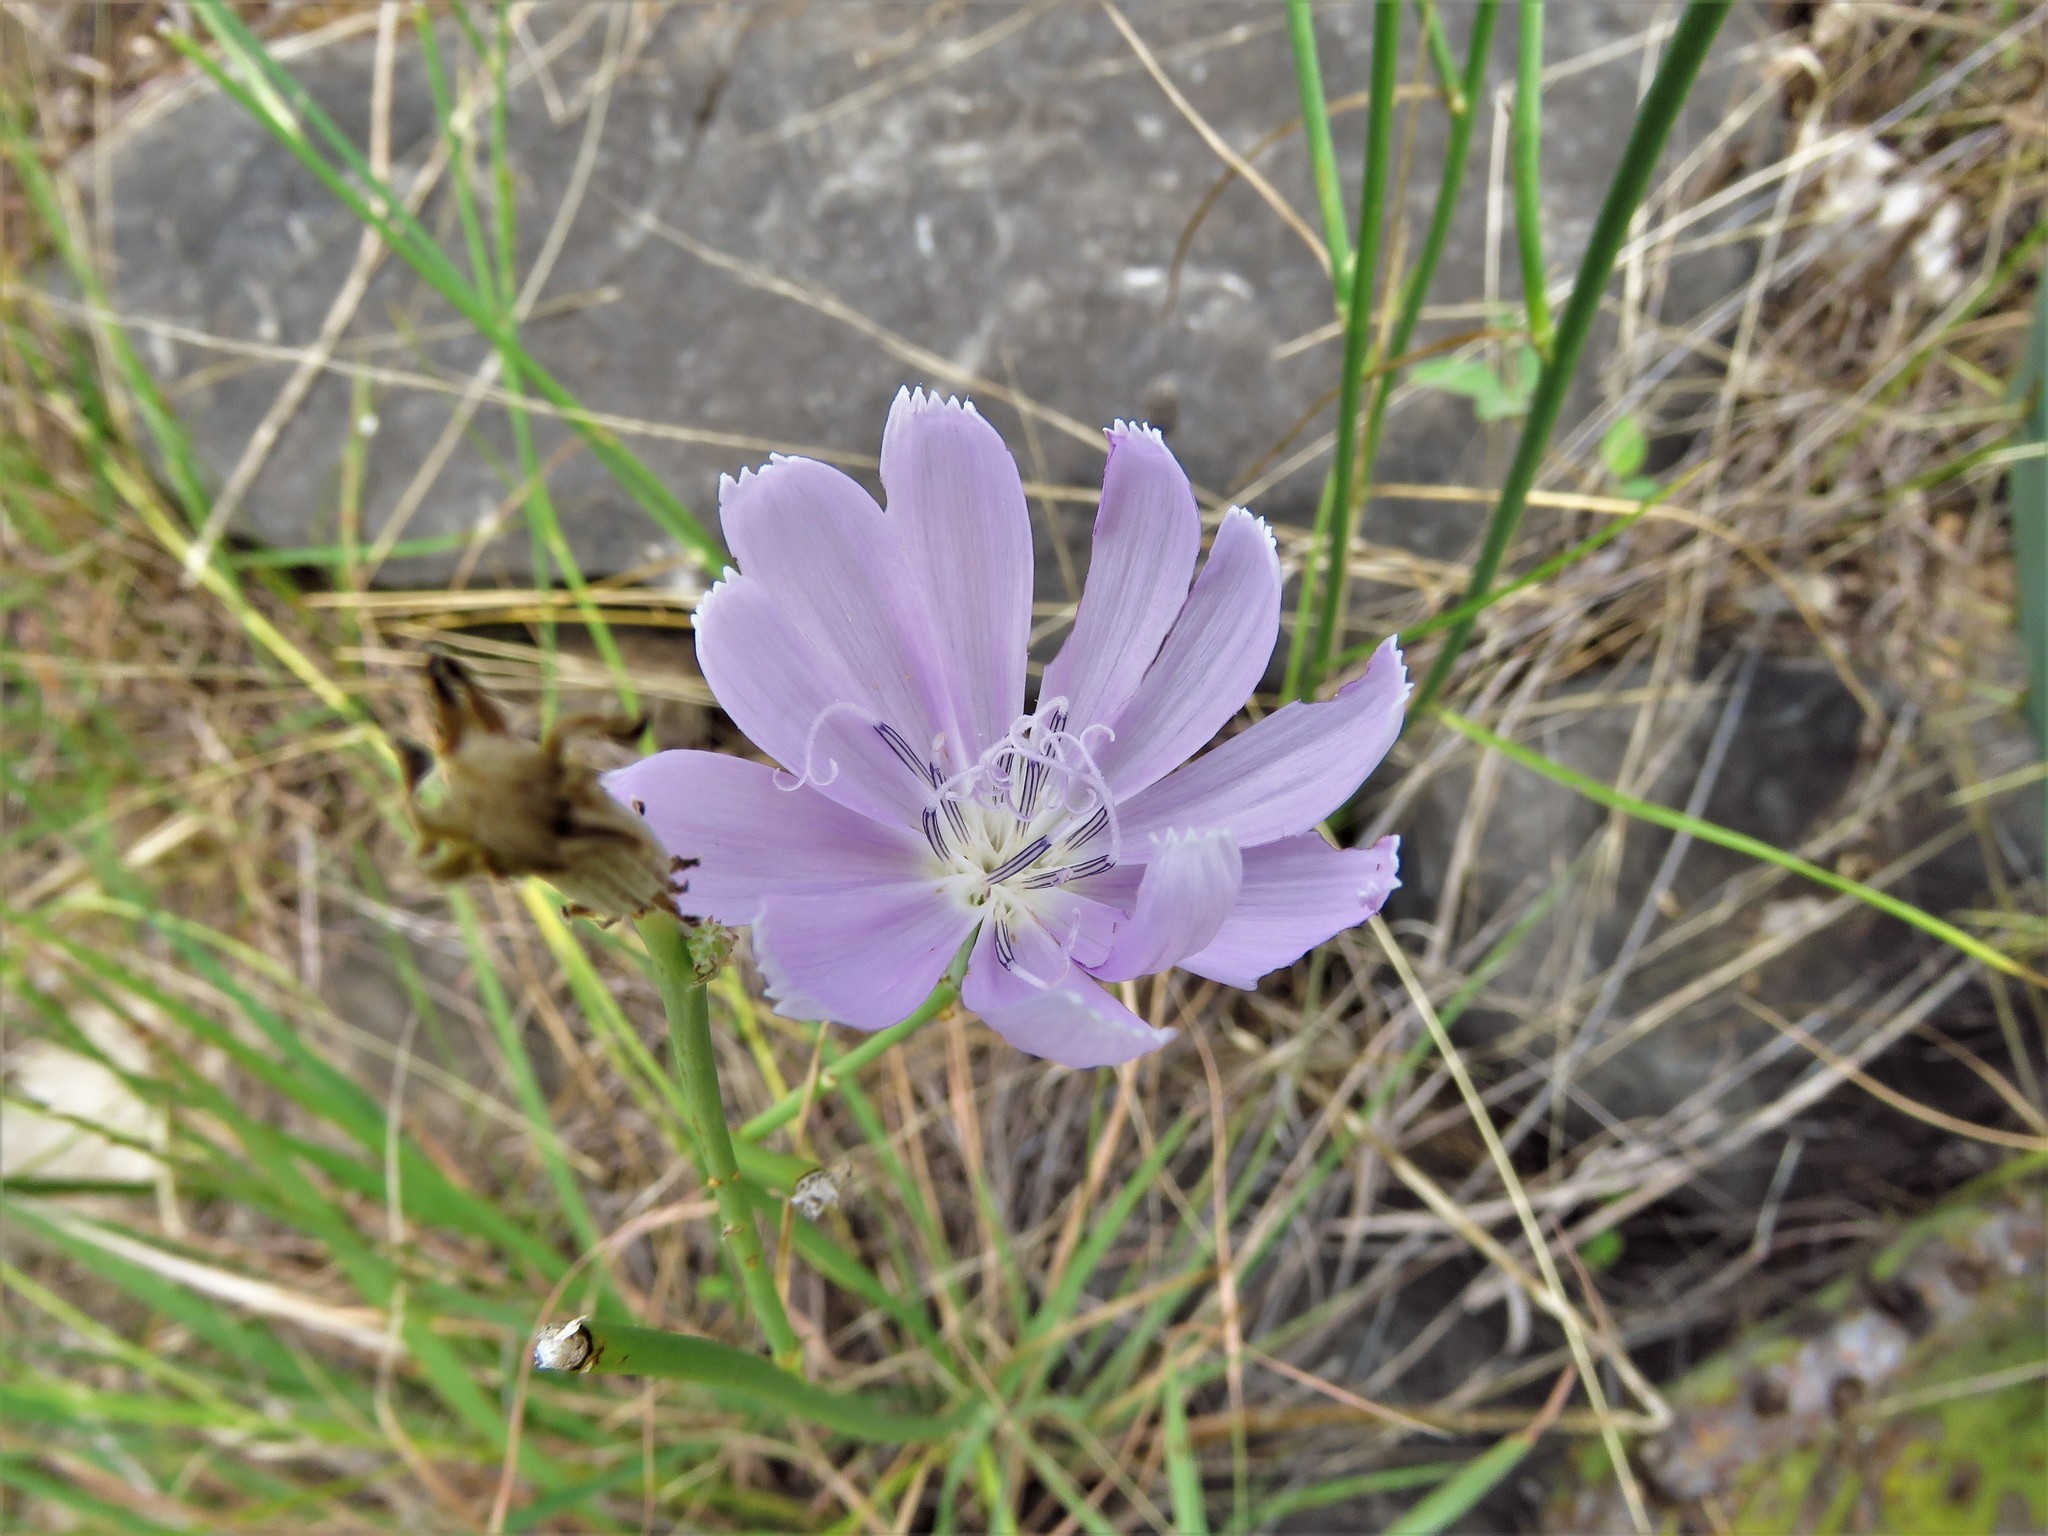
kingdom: Plantae
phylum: Tracheophyta
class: Magnoliopsida
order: Asterales
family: Asteraceae
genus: Lygodesmia
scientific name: Lygodesmia texana
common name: Texas skeleton-plant
